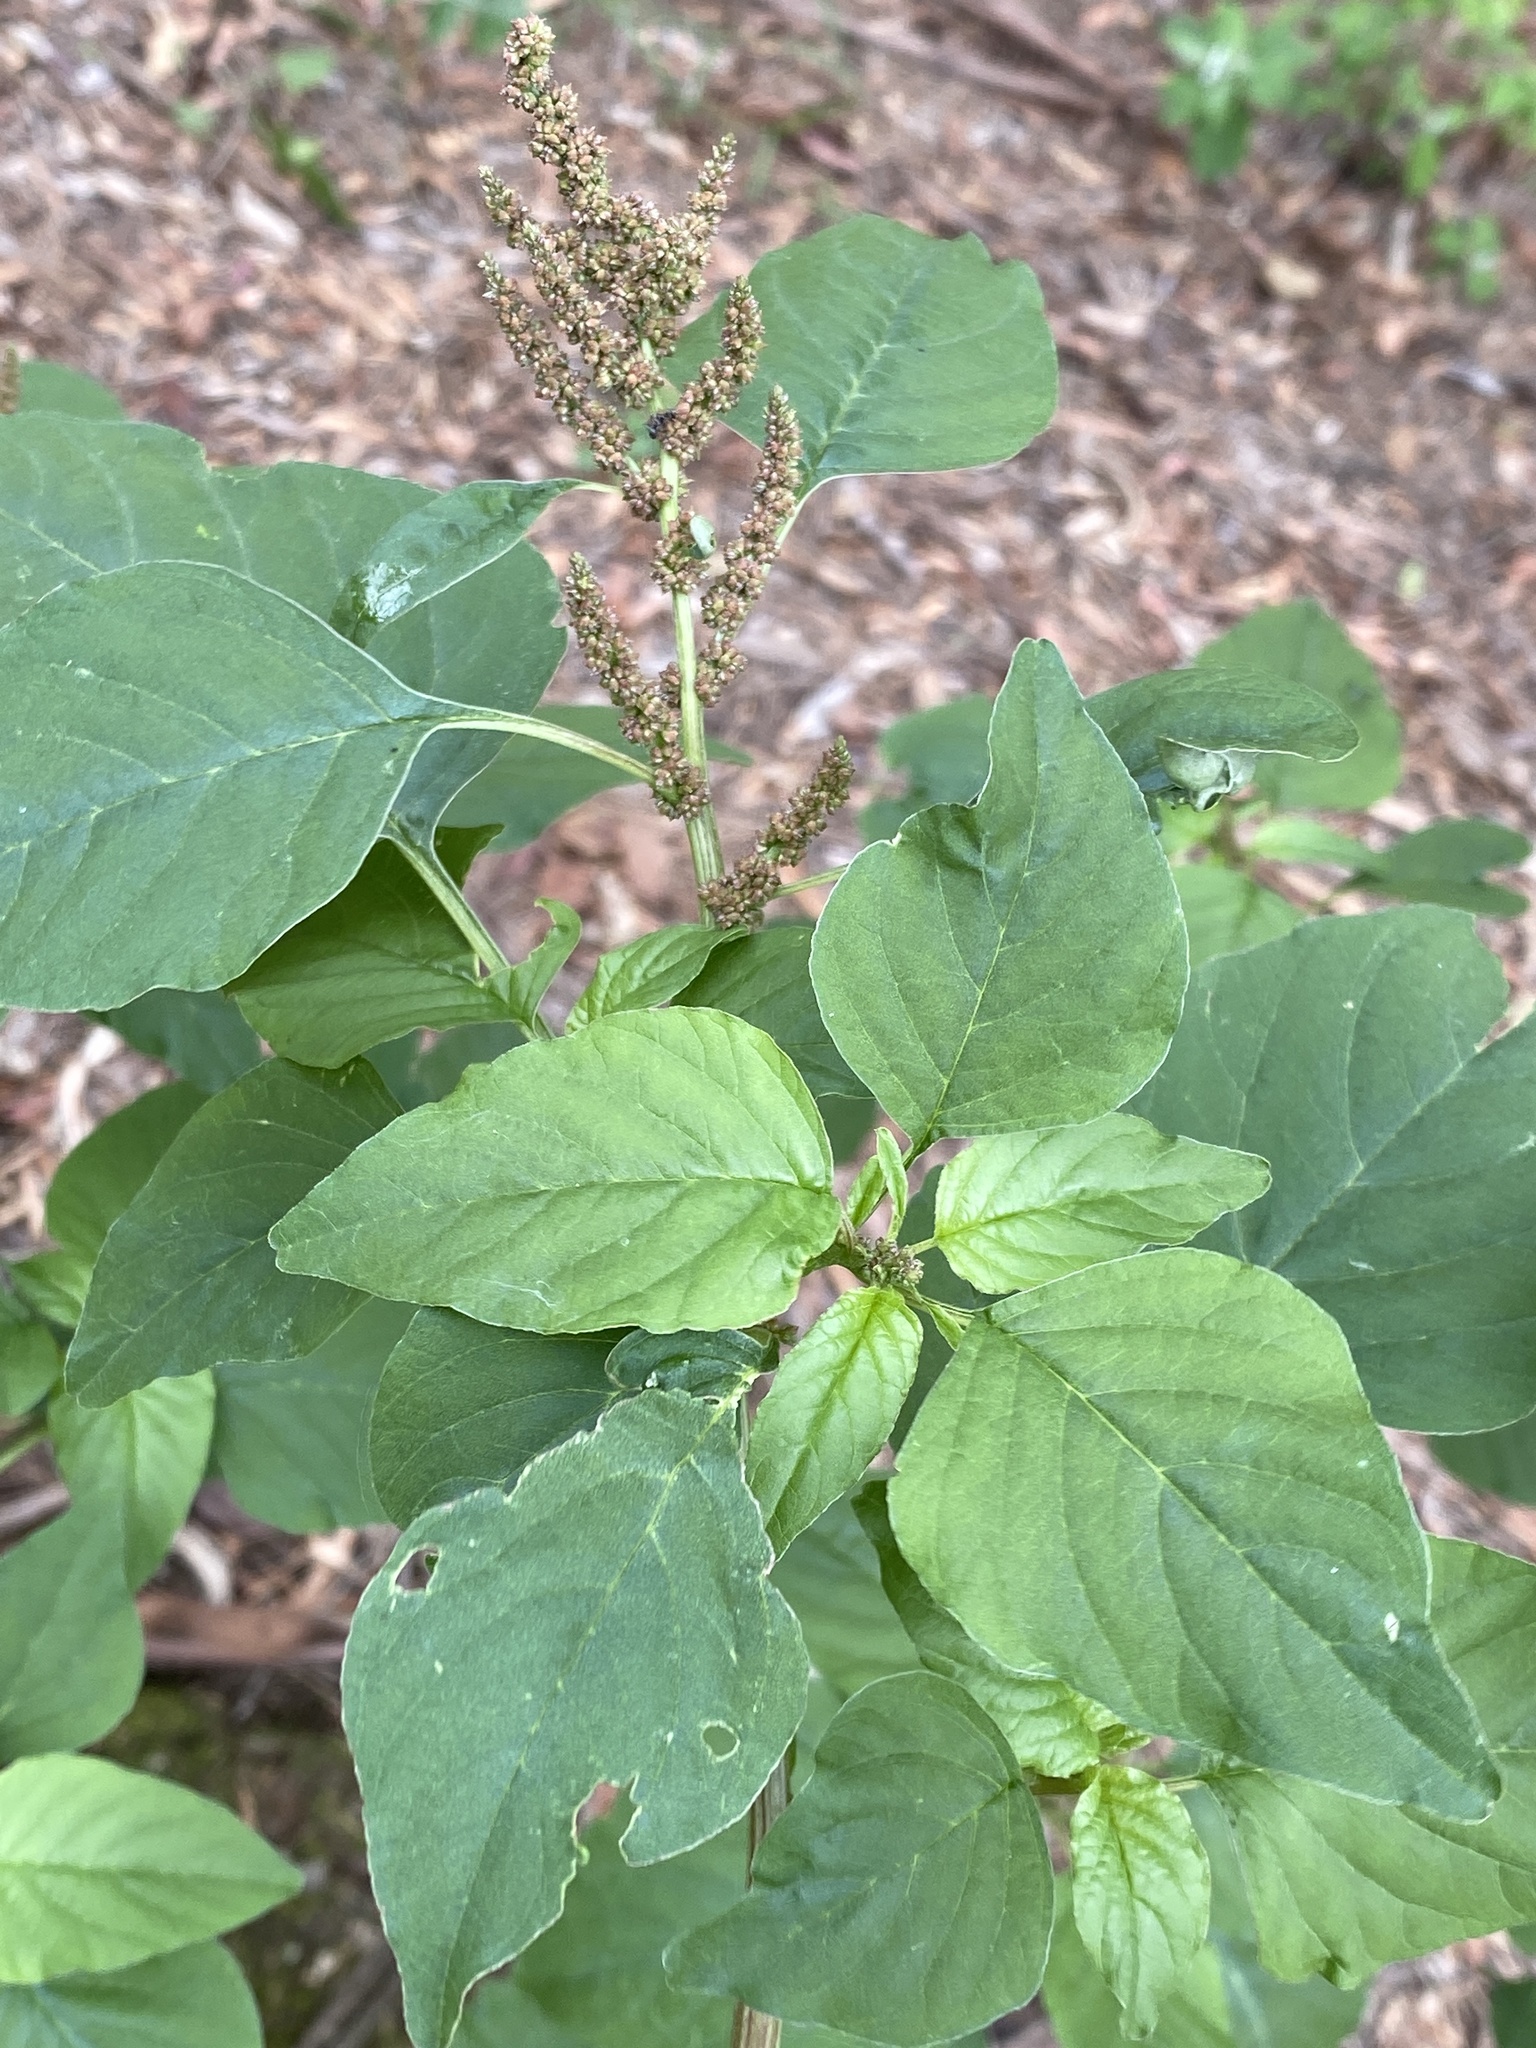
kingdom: Plantae
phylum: Tracheophyta
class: Magnoliopsida
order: Caryophyllales
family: Amaranthaceae
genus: Amaranthus
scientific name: Amaranthus viridis
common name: Slender amaranth
